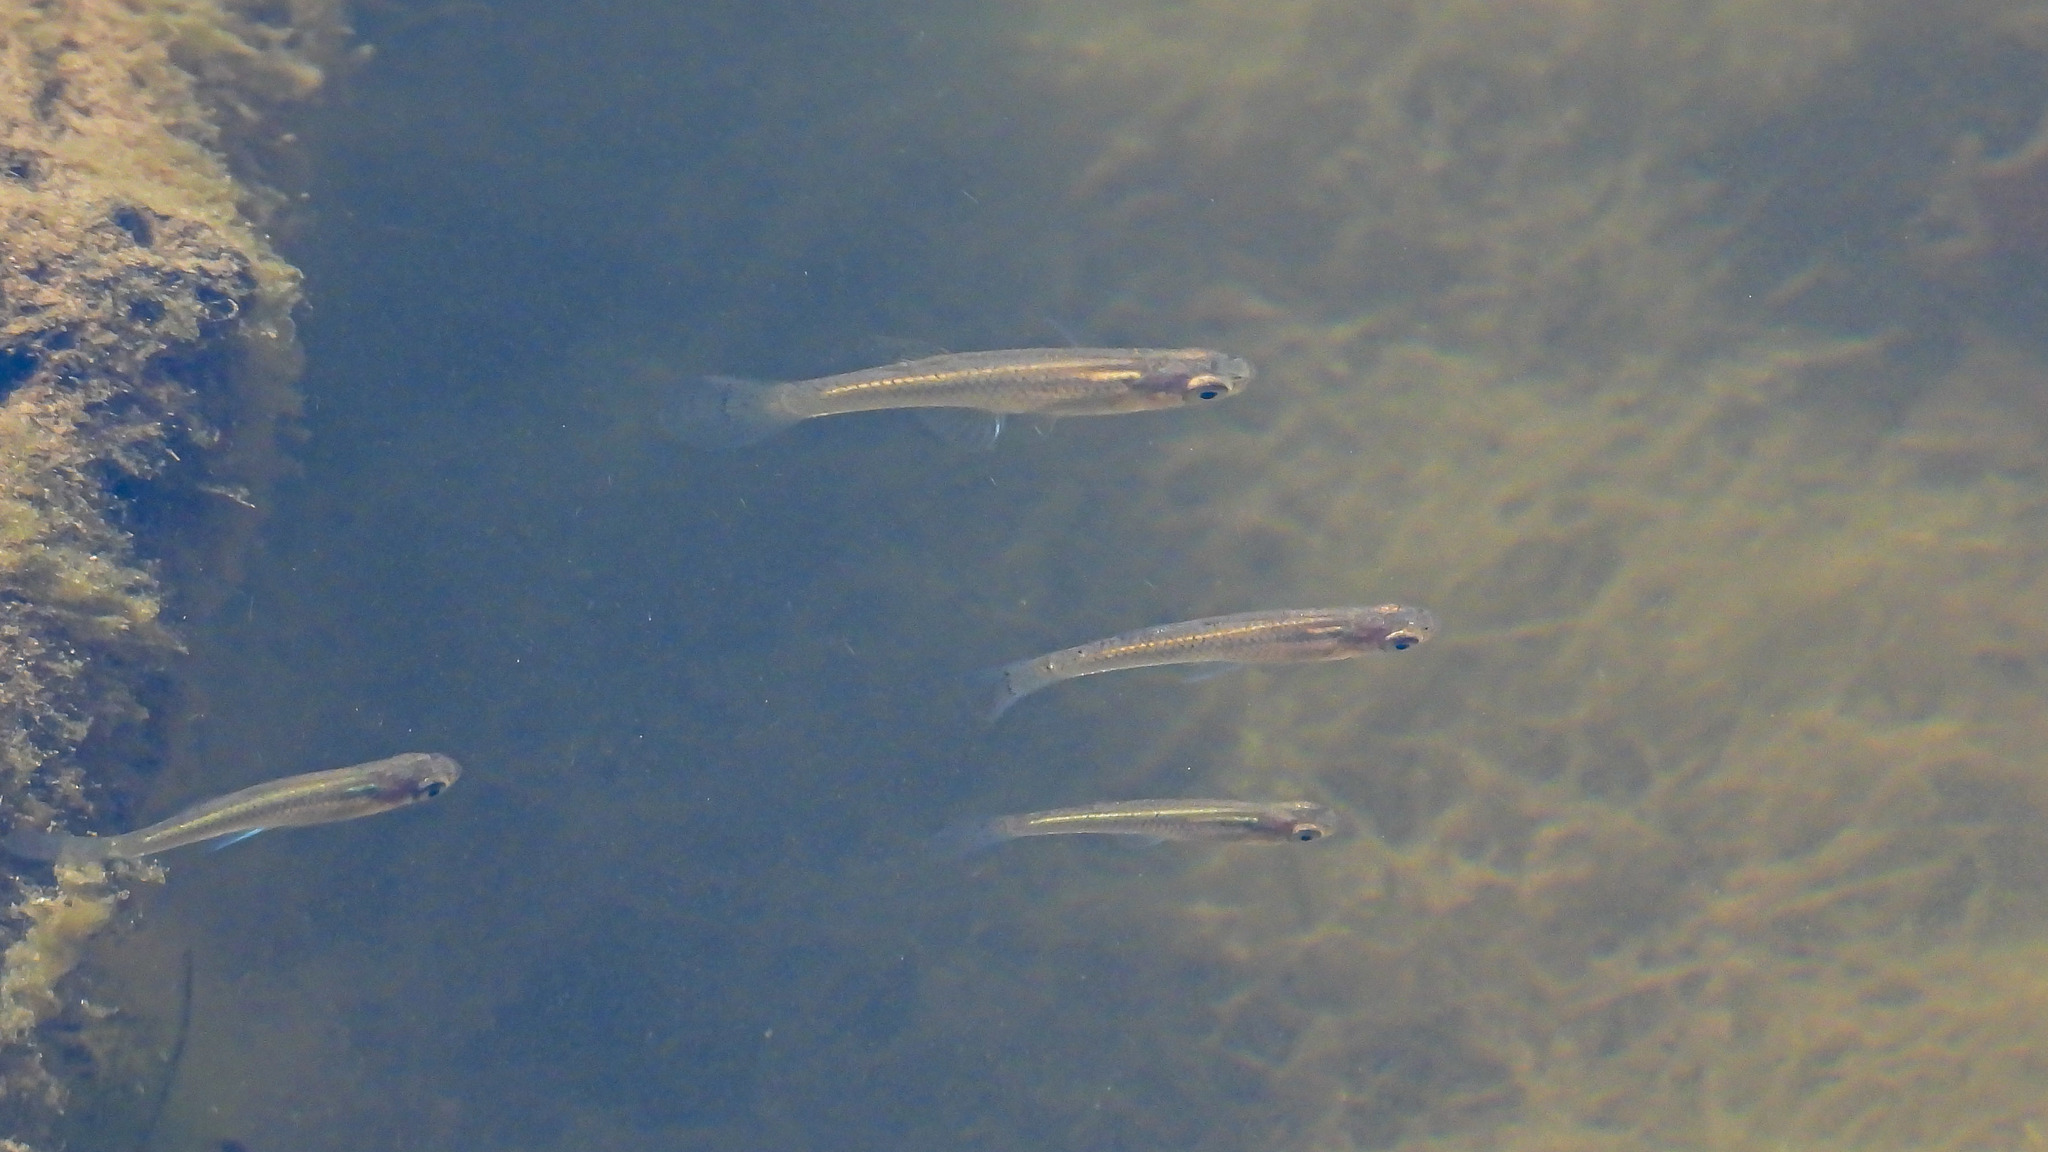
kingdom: Animalia
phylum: Chordata
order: Cyprinodontiformes
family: Poeciliidae
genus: Gambusia
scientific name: Gambusia holbrooki
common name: Eastern mosquitofish
